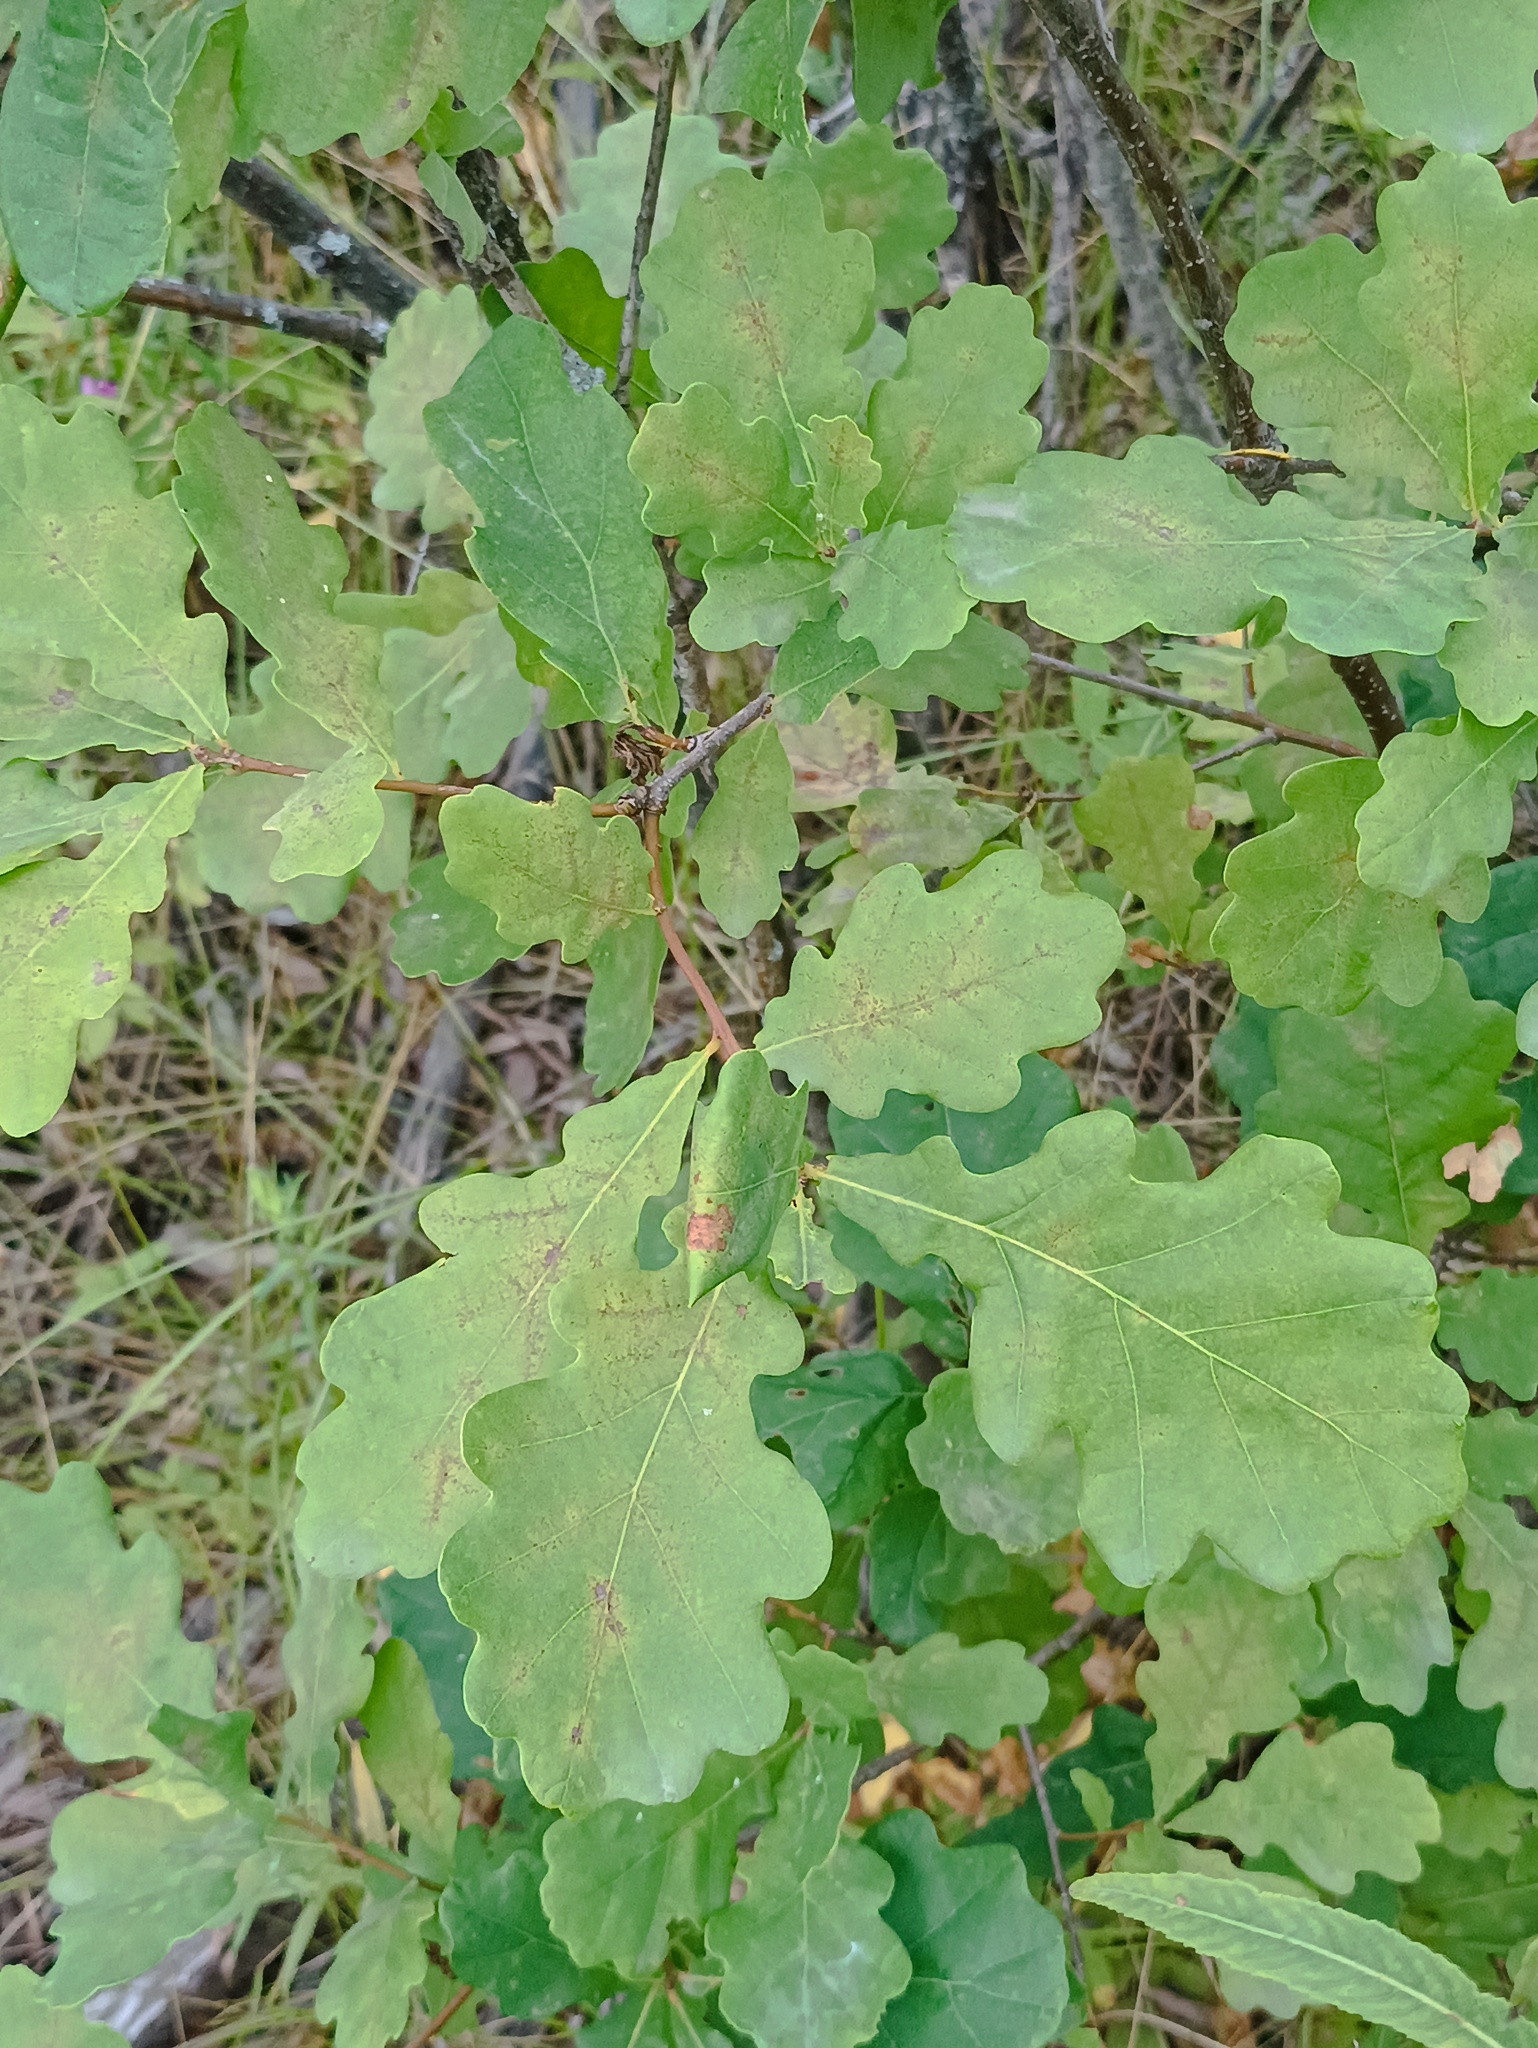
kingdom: Plantae
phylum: Tracheophyta
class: Magnoliopsida
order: Fagales
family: Fagaceae
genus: Quercus
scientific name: Quercus robur
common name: Pedunculate oak
